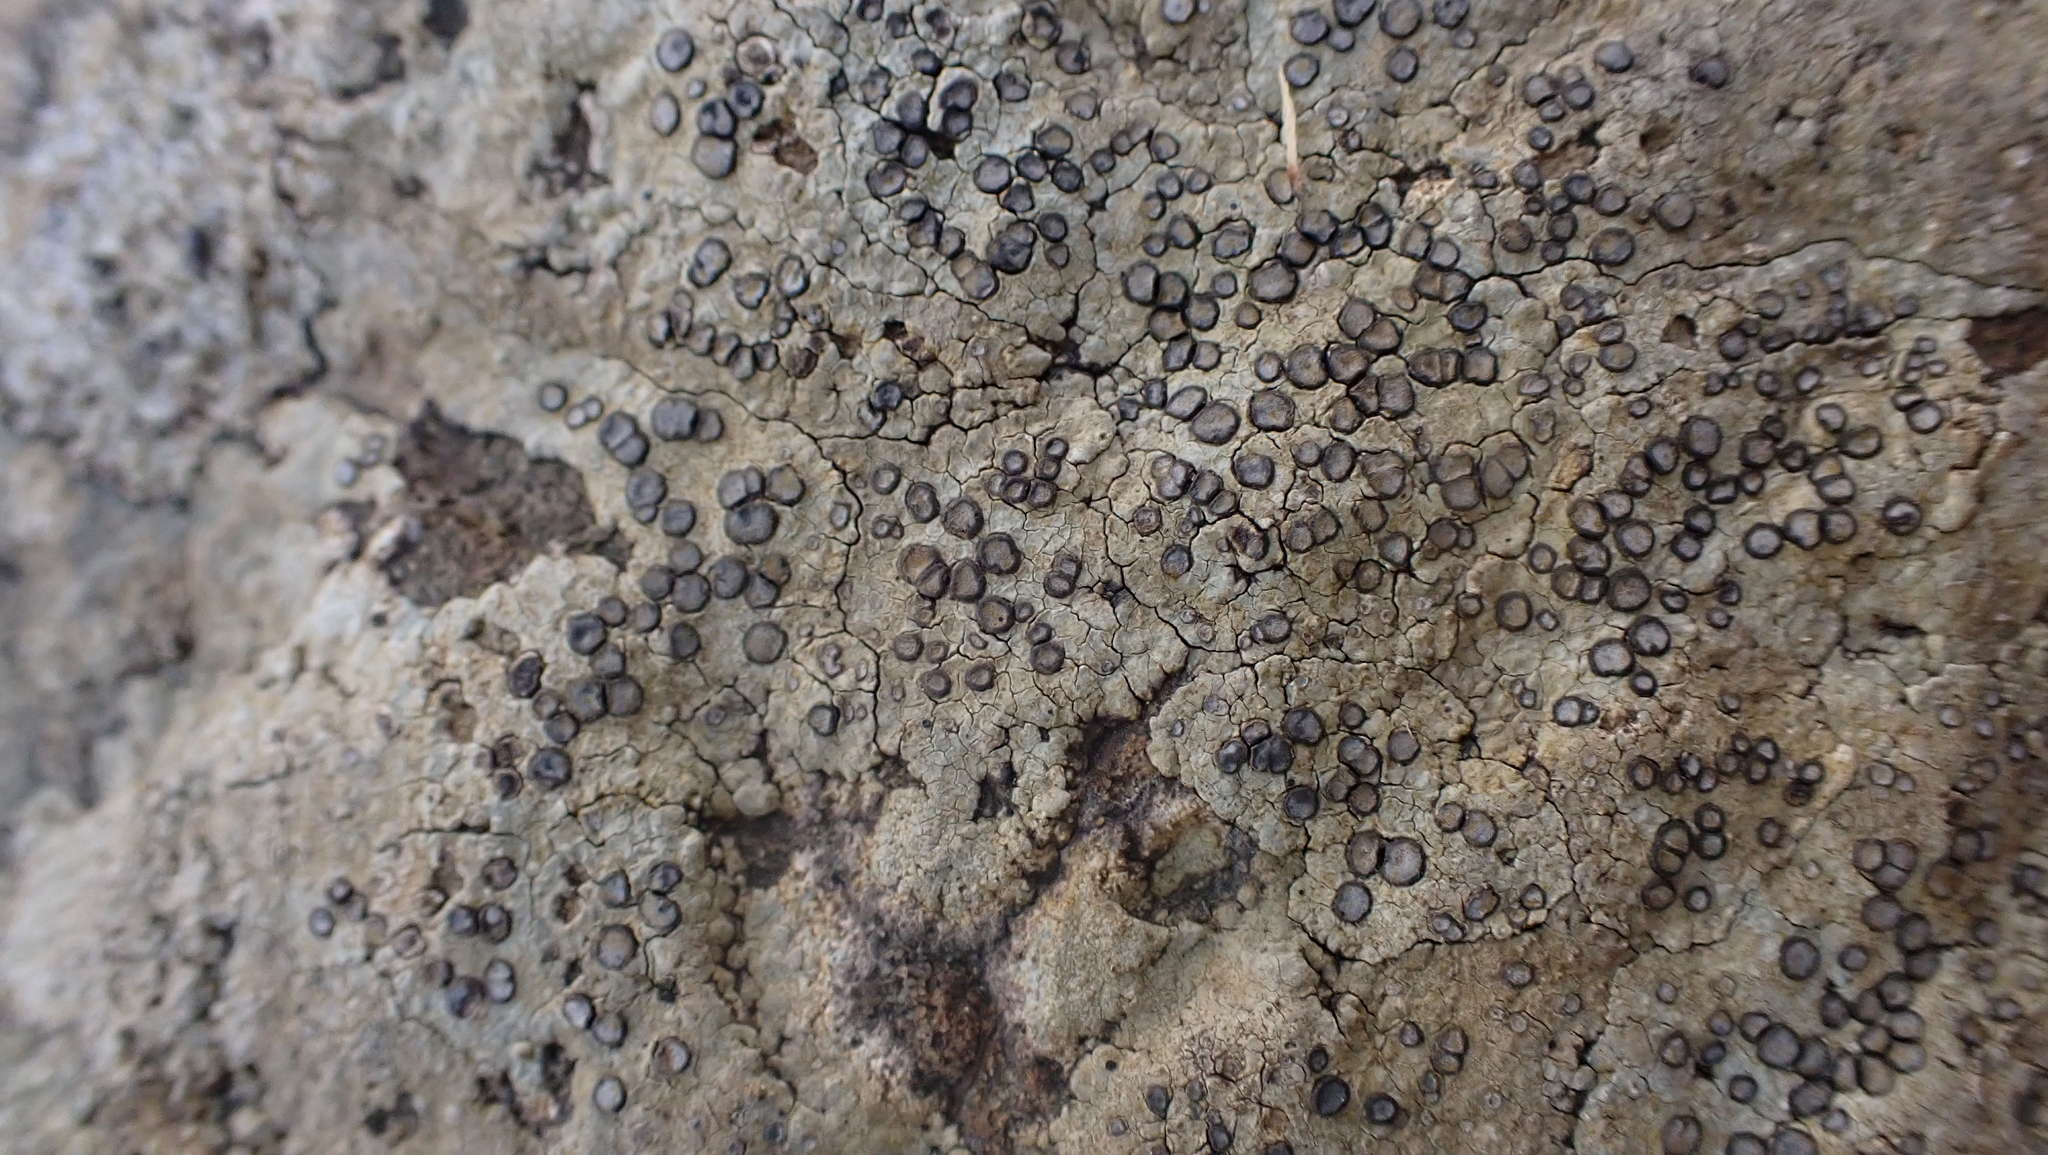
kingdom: Fungi
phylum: Ascomycota
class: Lecanoromycetes
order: Lecideales
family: Lecideaceae
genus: Porpidia
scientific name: Porpidia albocaerulescens
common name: Smokey-eyed boulder lichen
